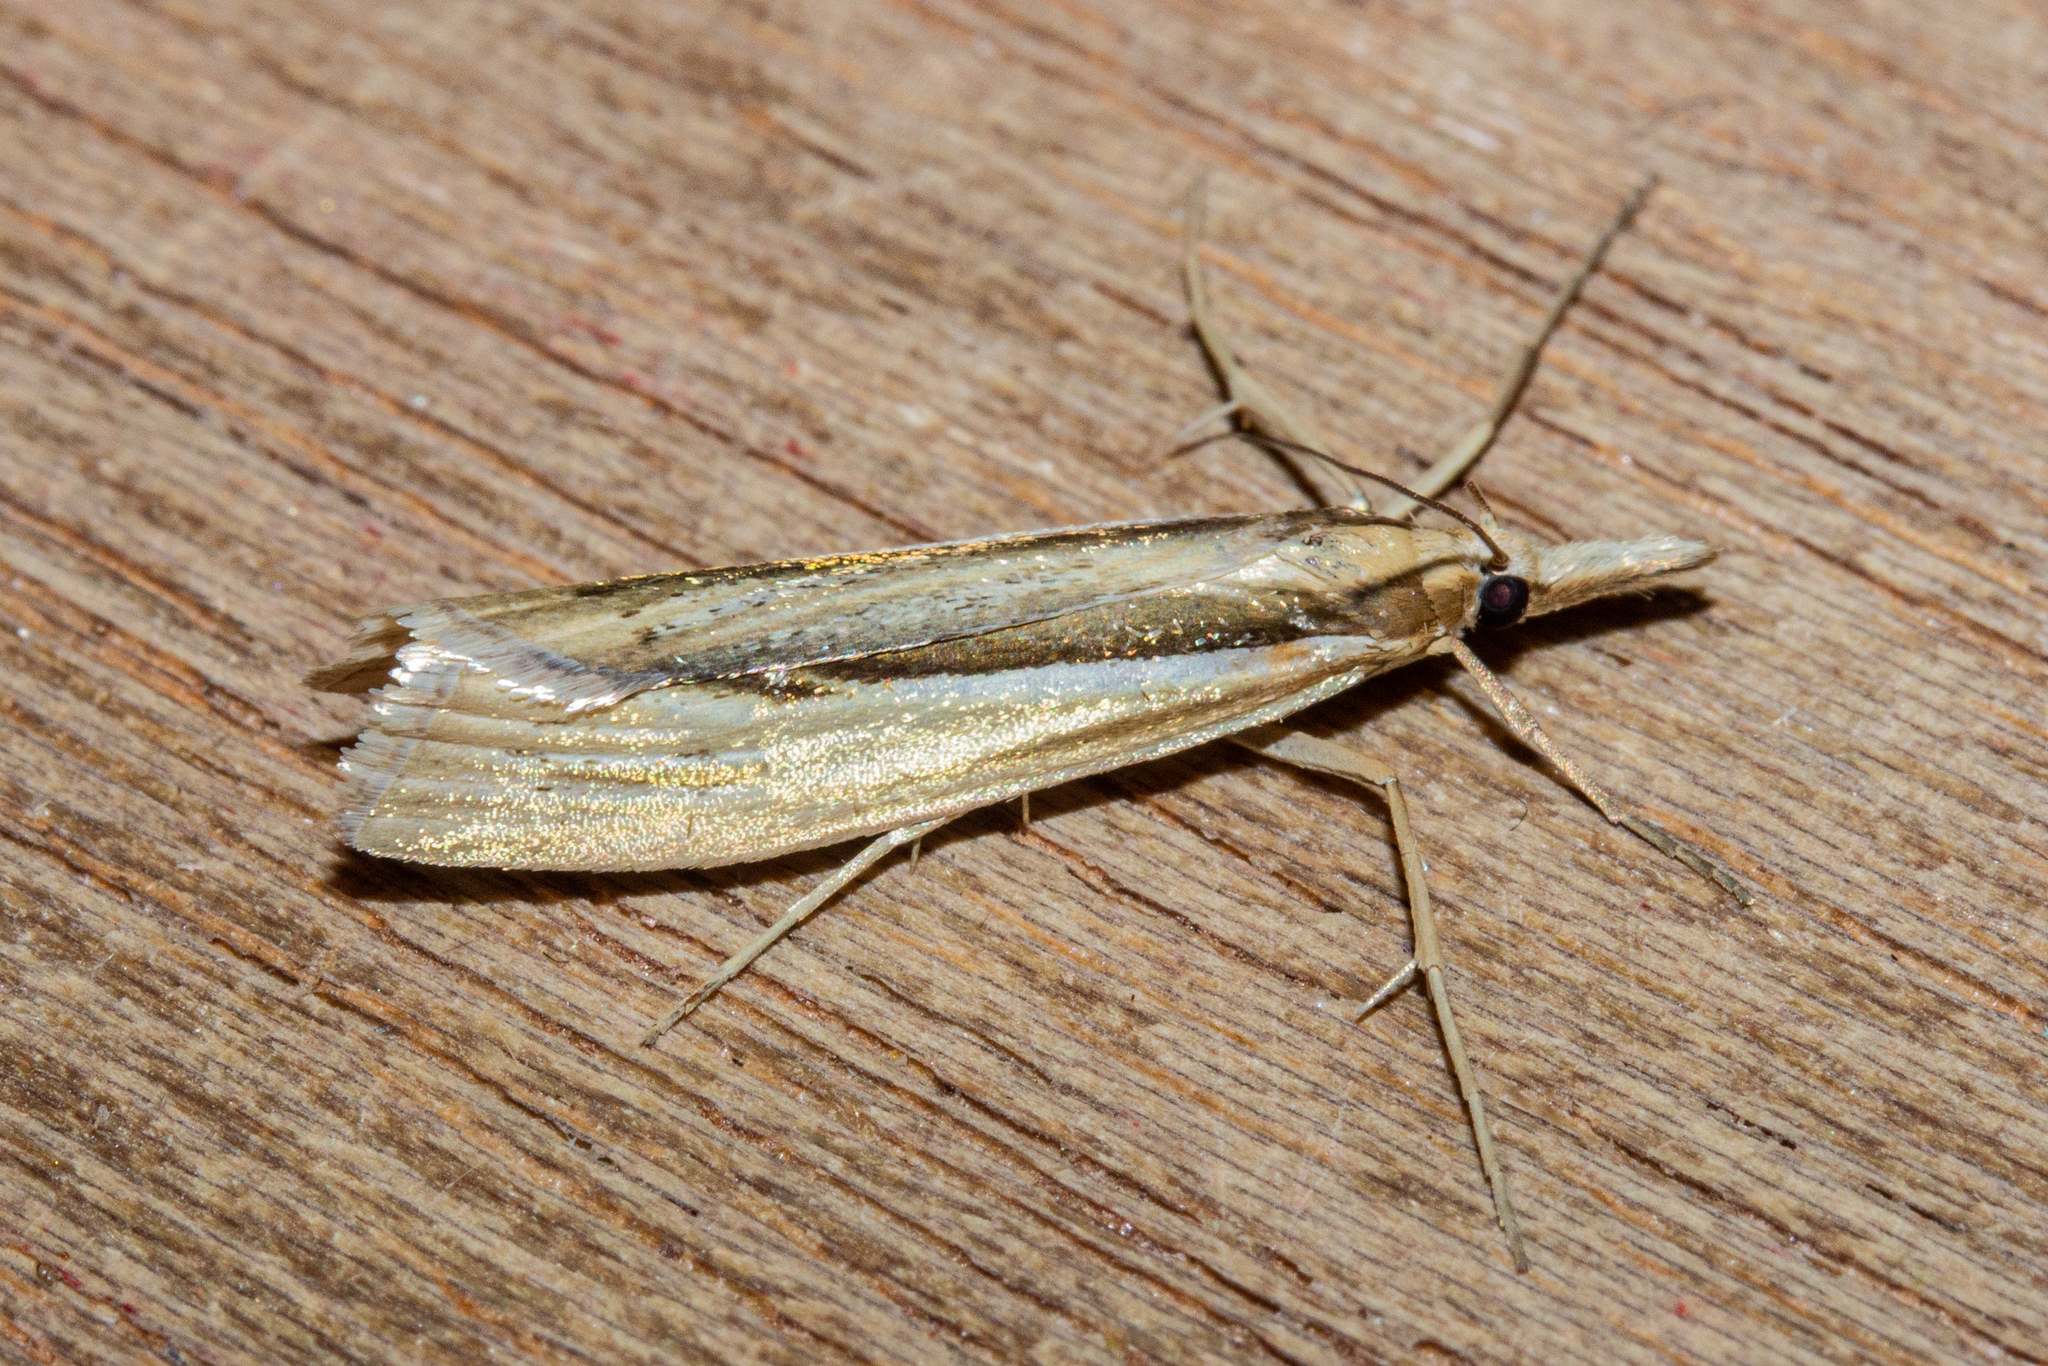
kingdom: Animalia
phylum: Arthropoda
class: Insecta
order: Lepidoptera
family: Crambidae
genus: Orocrambus
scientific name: Orocrambus ramosellus
